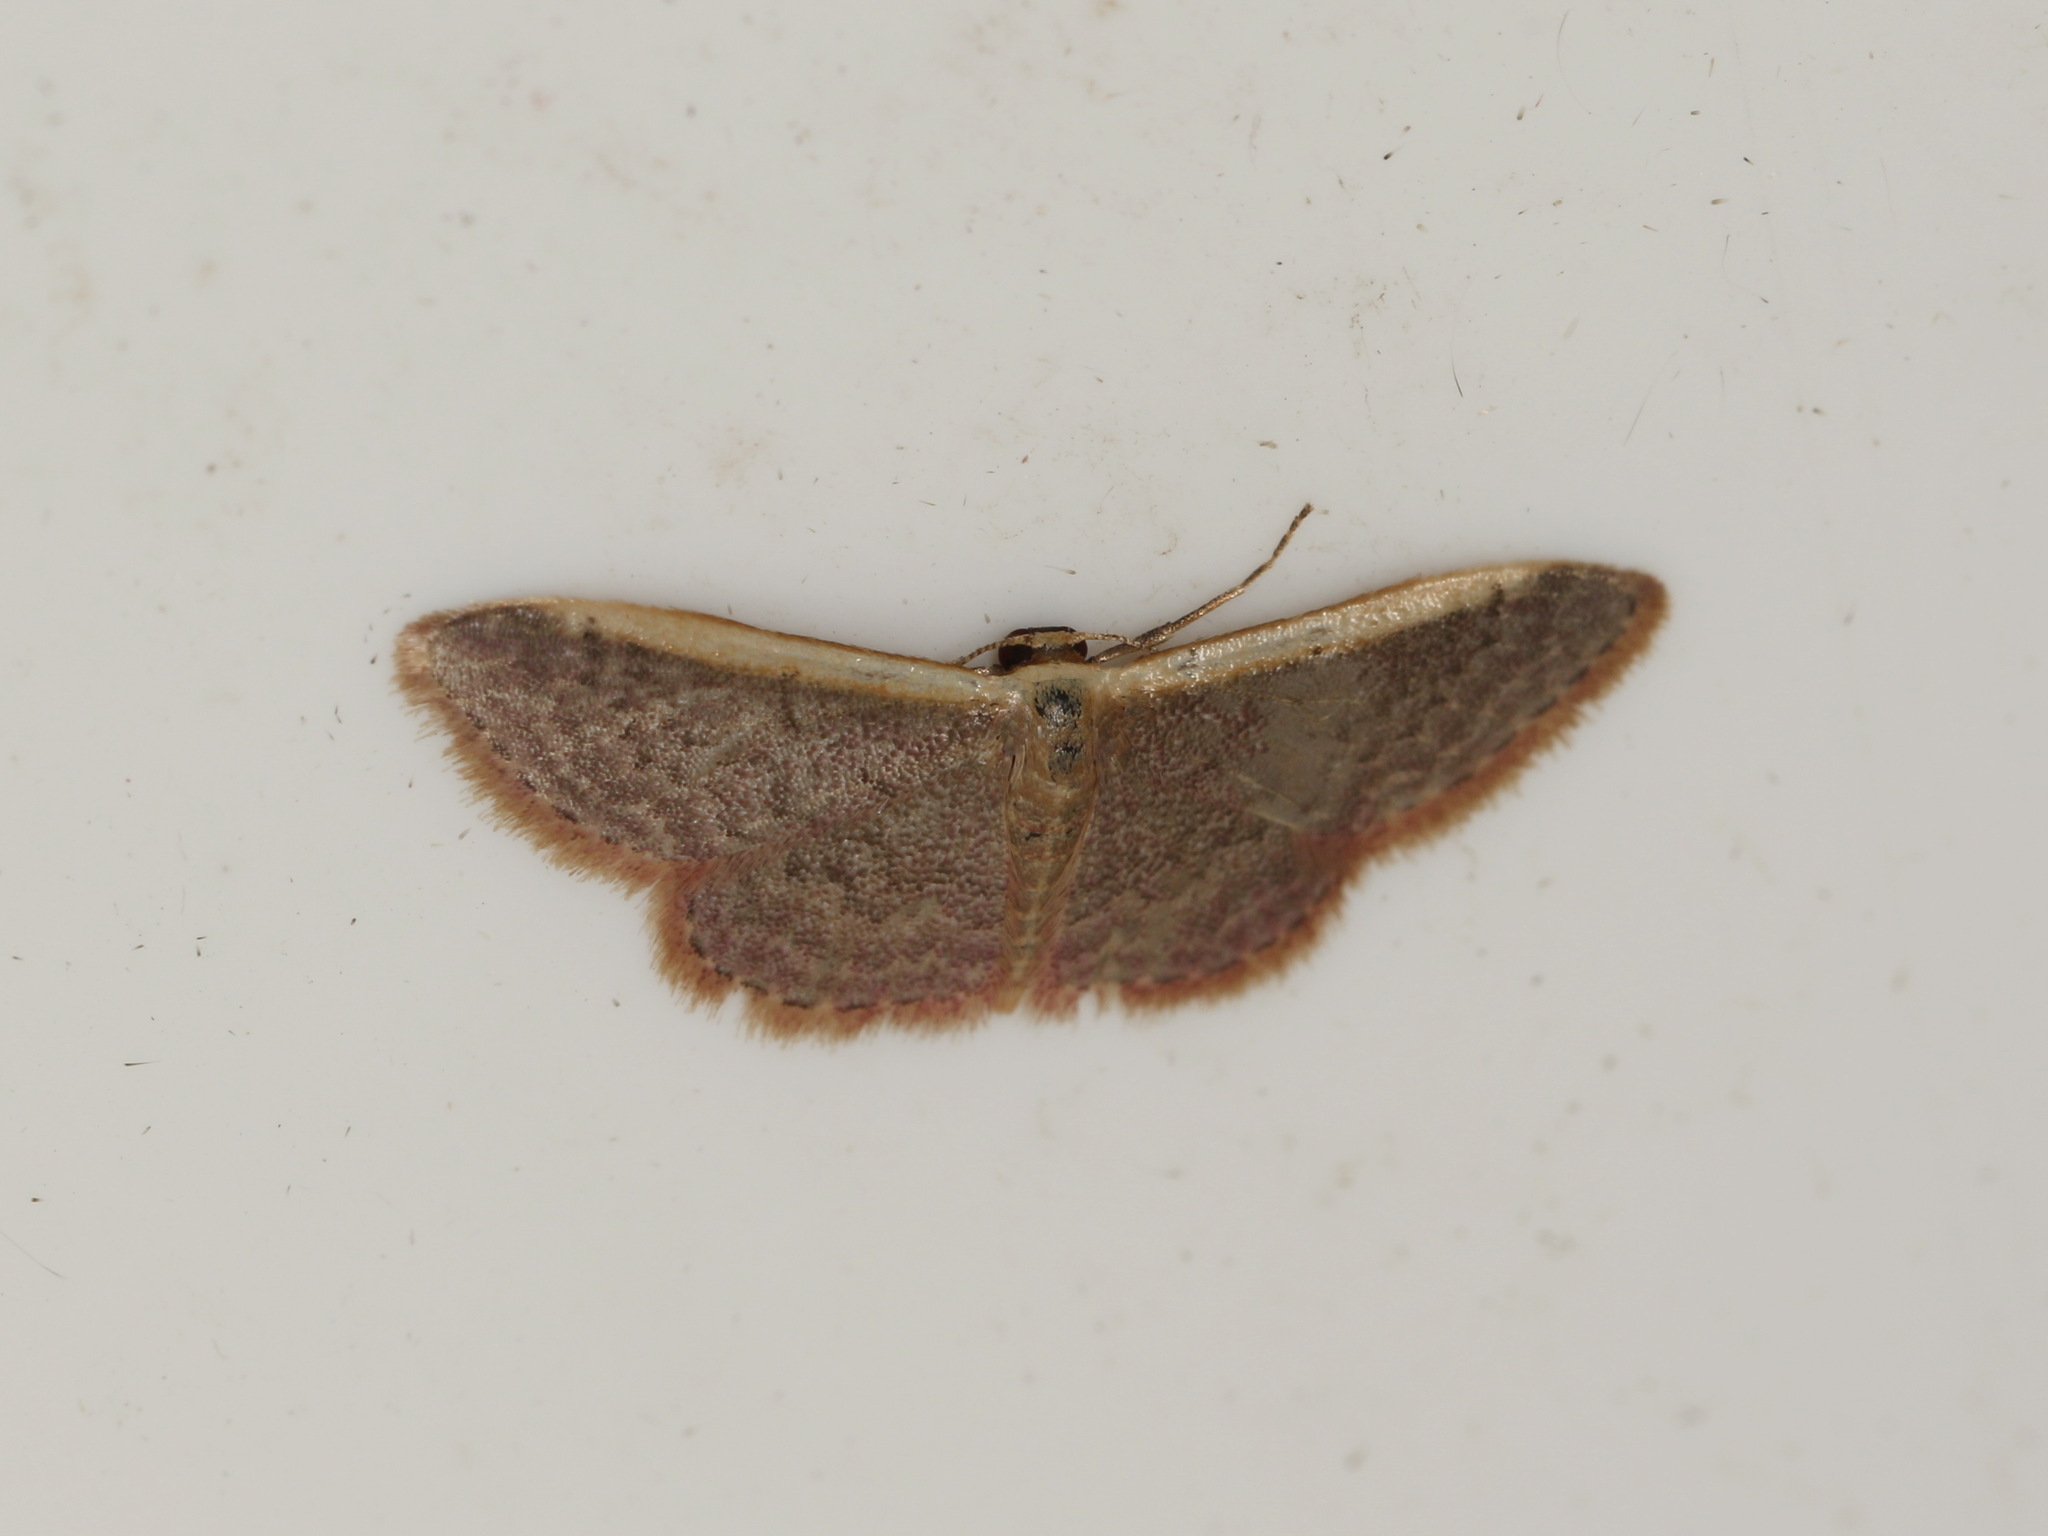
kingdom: Animalia
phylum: Arthropoda
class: Insecta
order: Lepidoptera
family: Geometridae
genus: Idaea
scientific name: Idaea costaria
